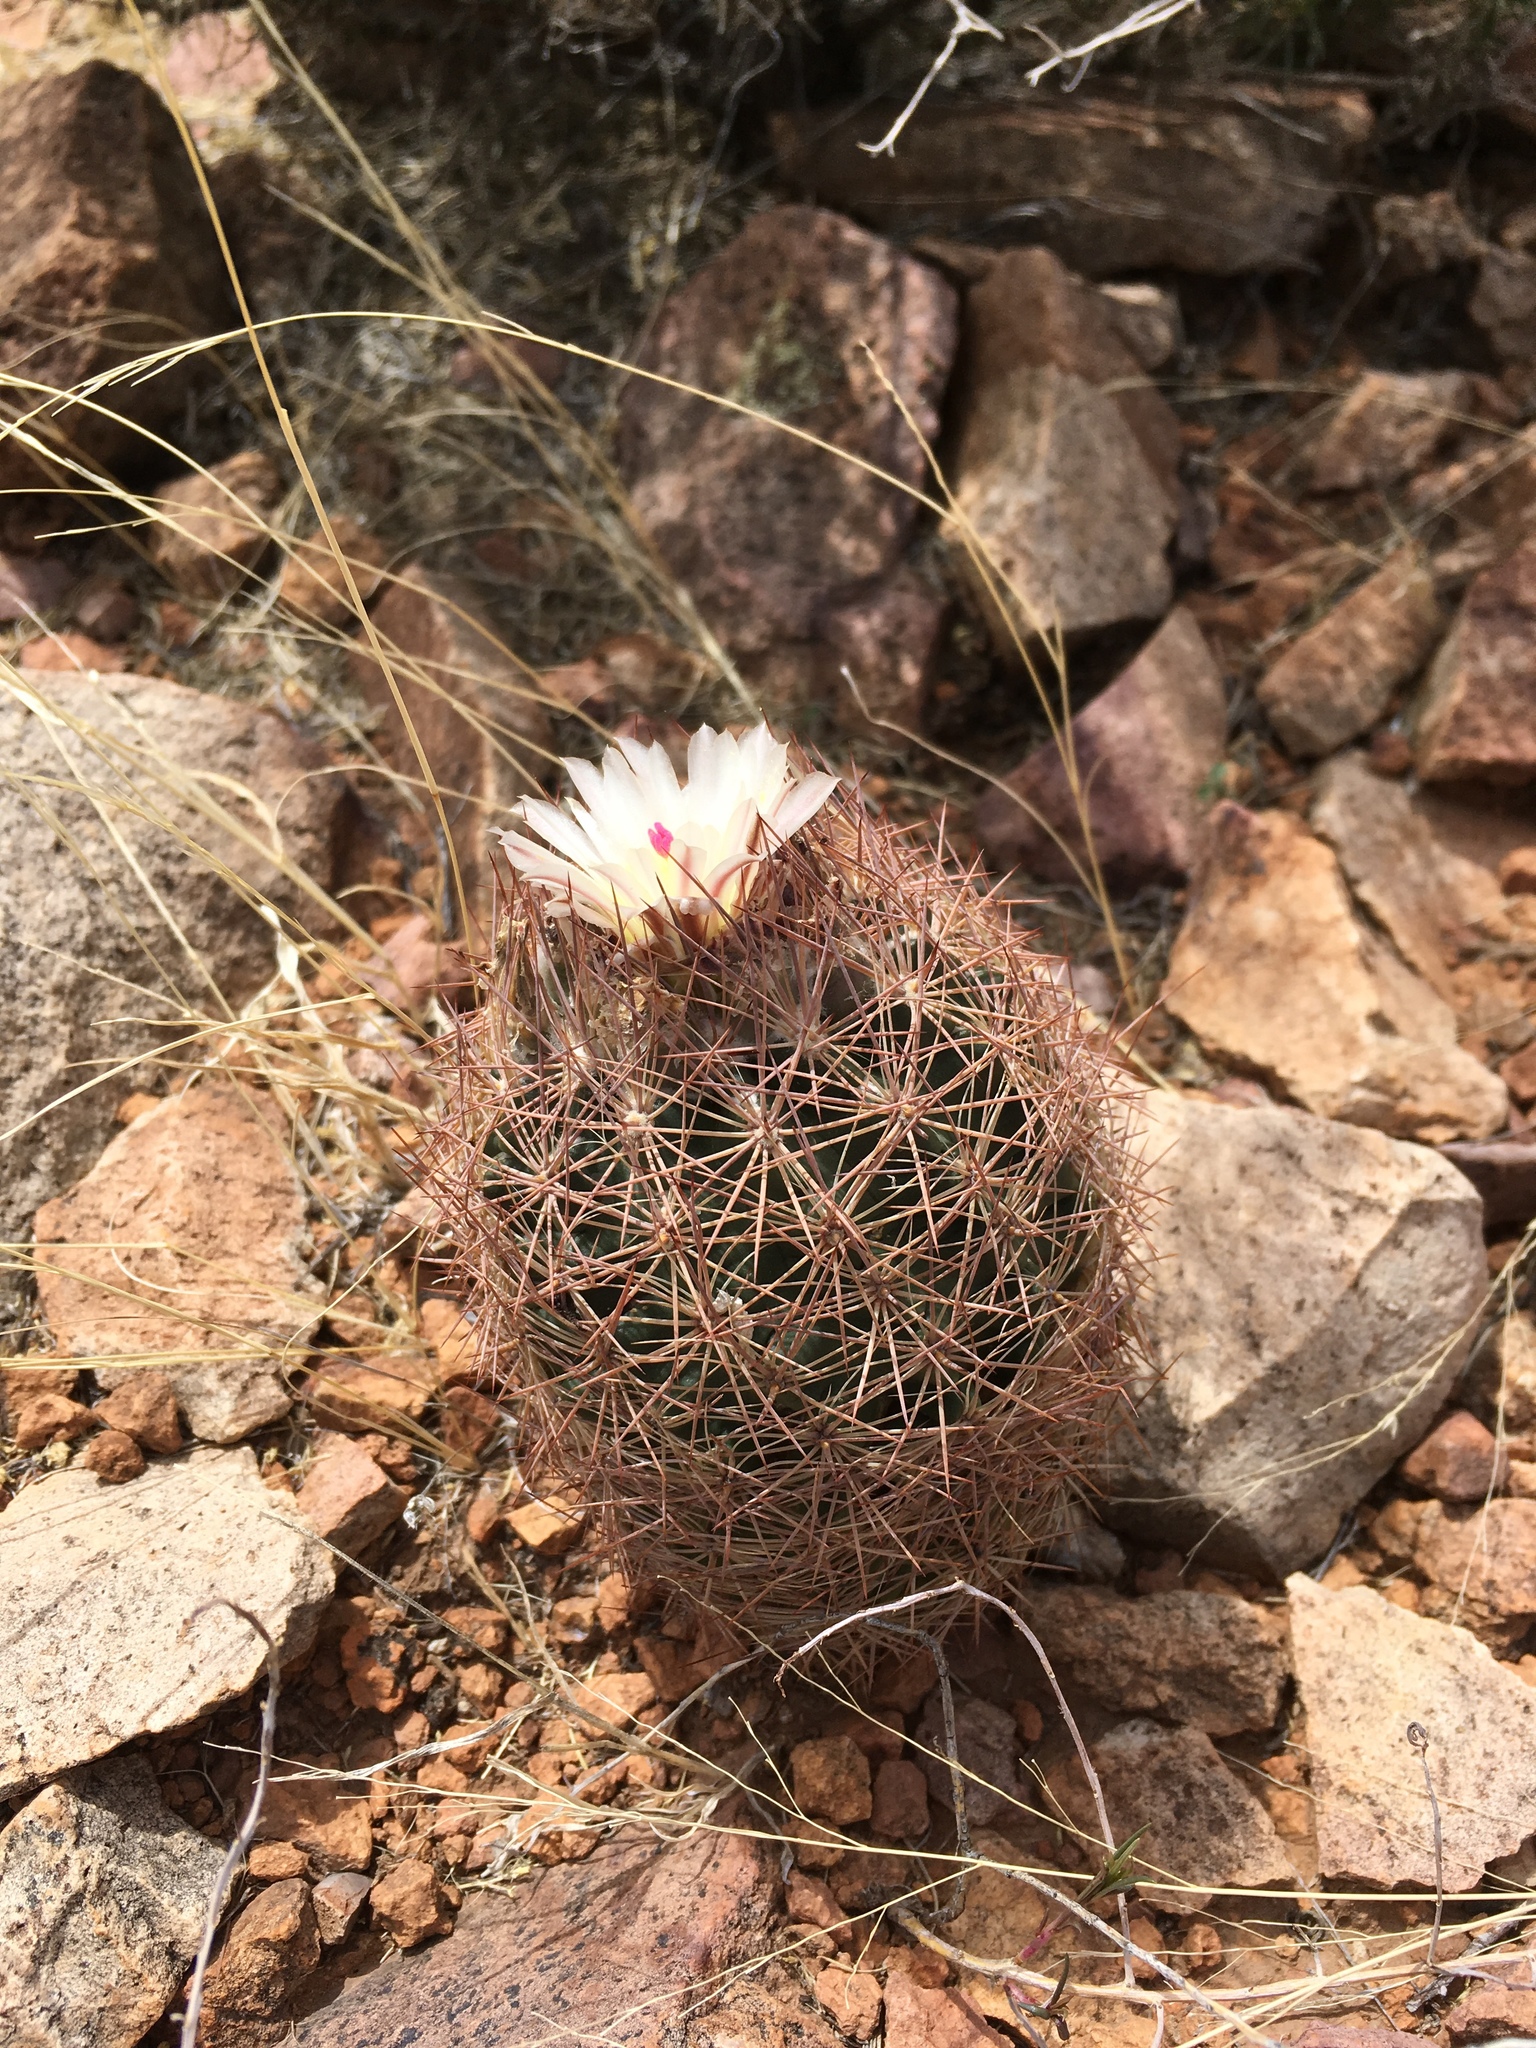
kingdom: Plantae
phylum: Tracheophyta
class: Magnoliopsida
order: Caryophyllales
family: Cactaceae
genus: Sclerocactus
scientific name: Sclerocactus intertextus
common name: White fish-hook cactus
